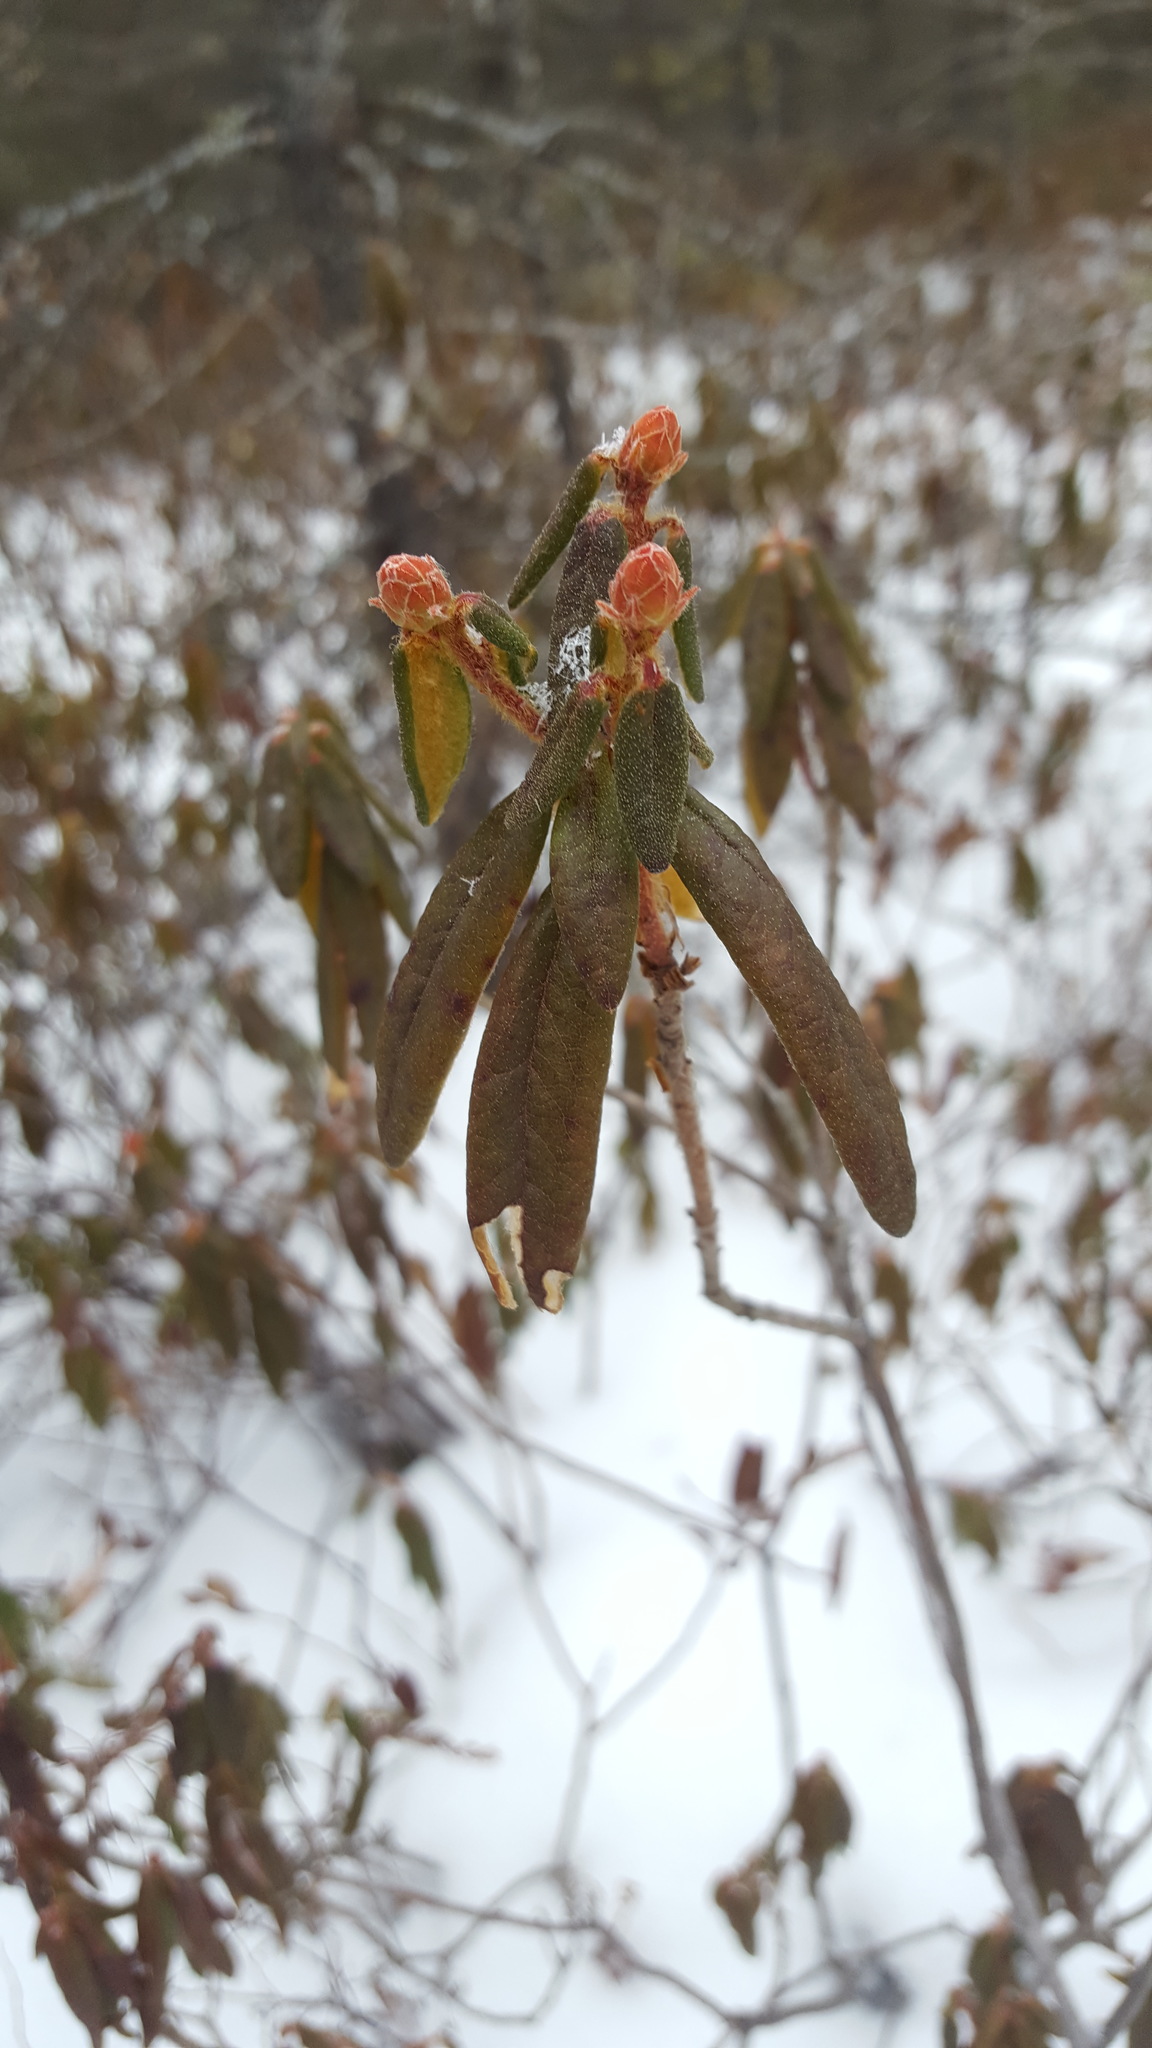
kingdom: Plantae
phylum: Tracheophyta
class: Magnoliopsida
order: Ericales
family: Ericaceae
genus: Rhododendron
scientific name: Rhododendron groenlandicum
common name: Bog labrador tea
